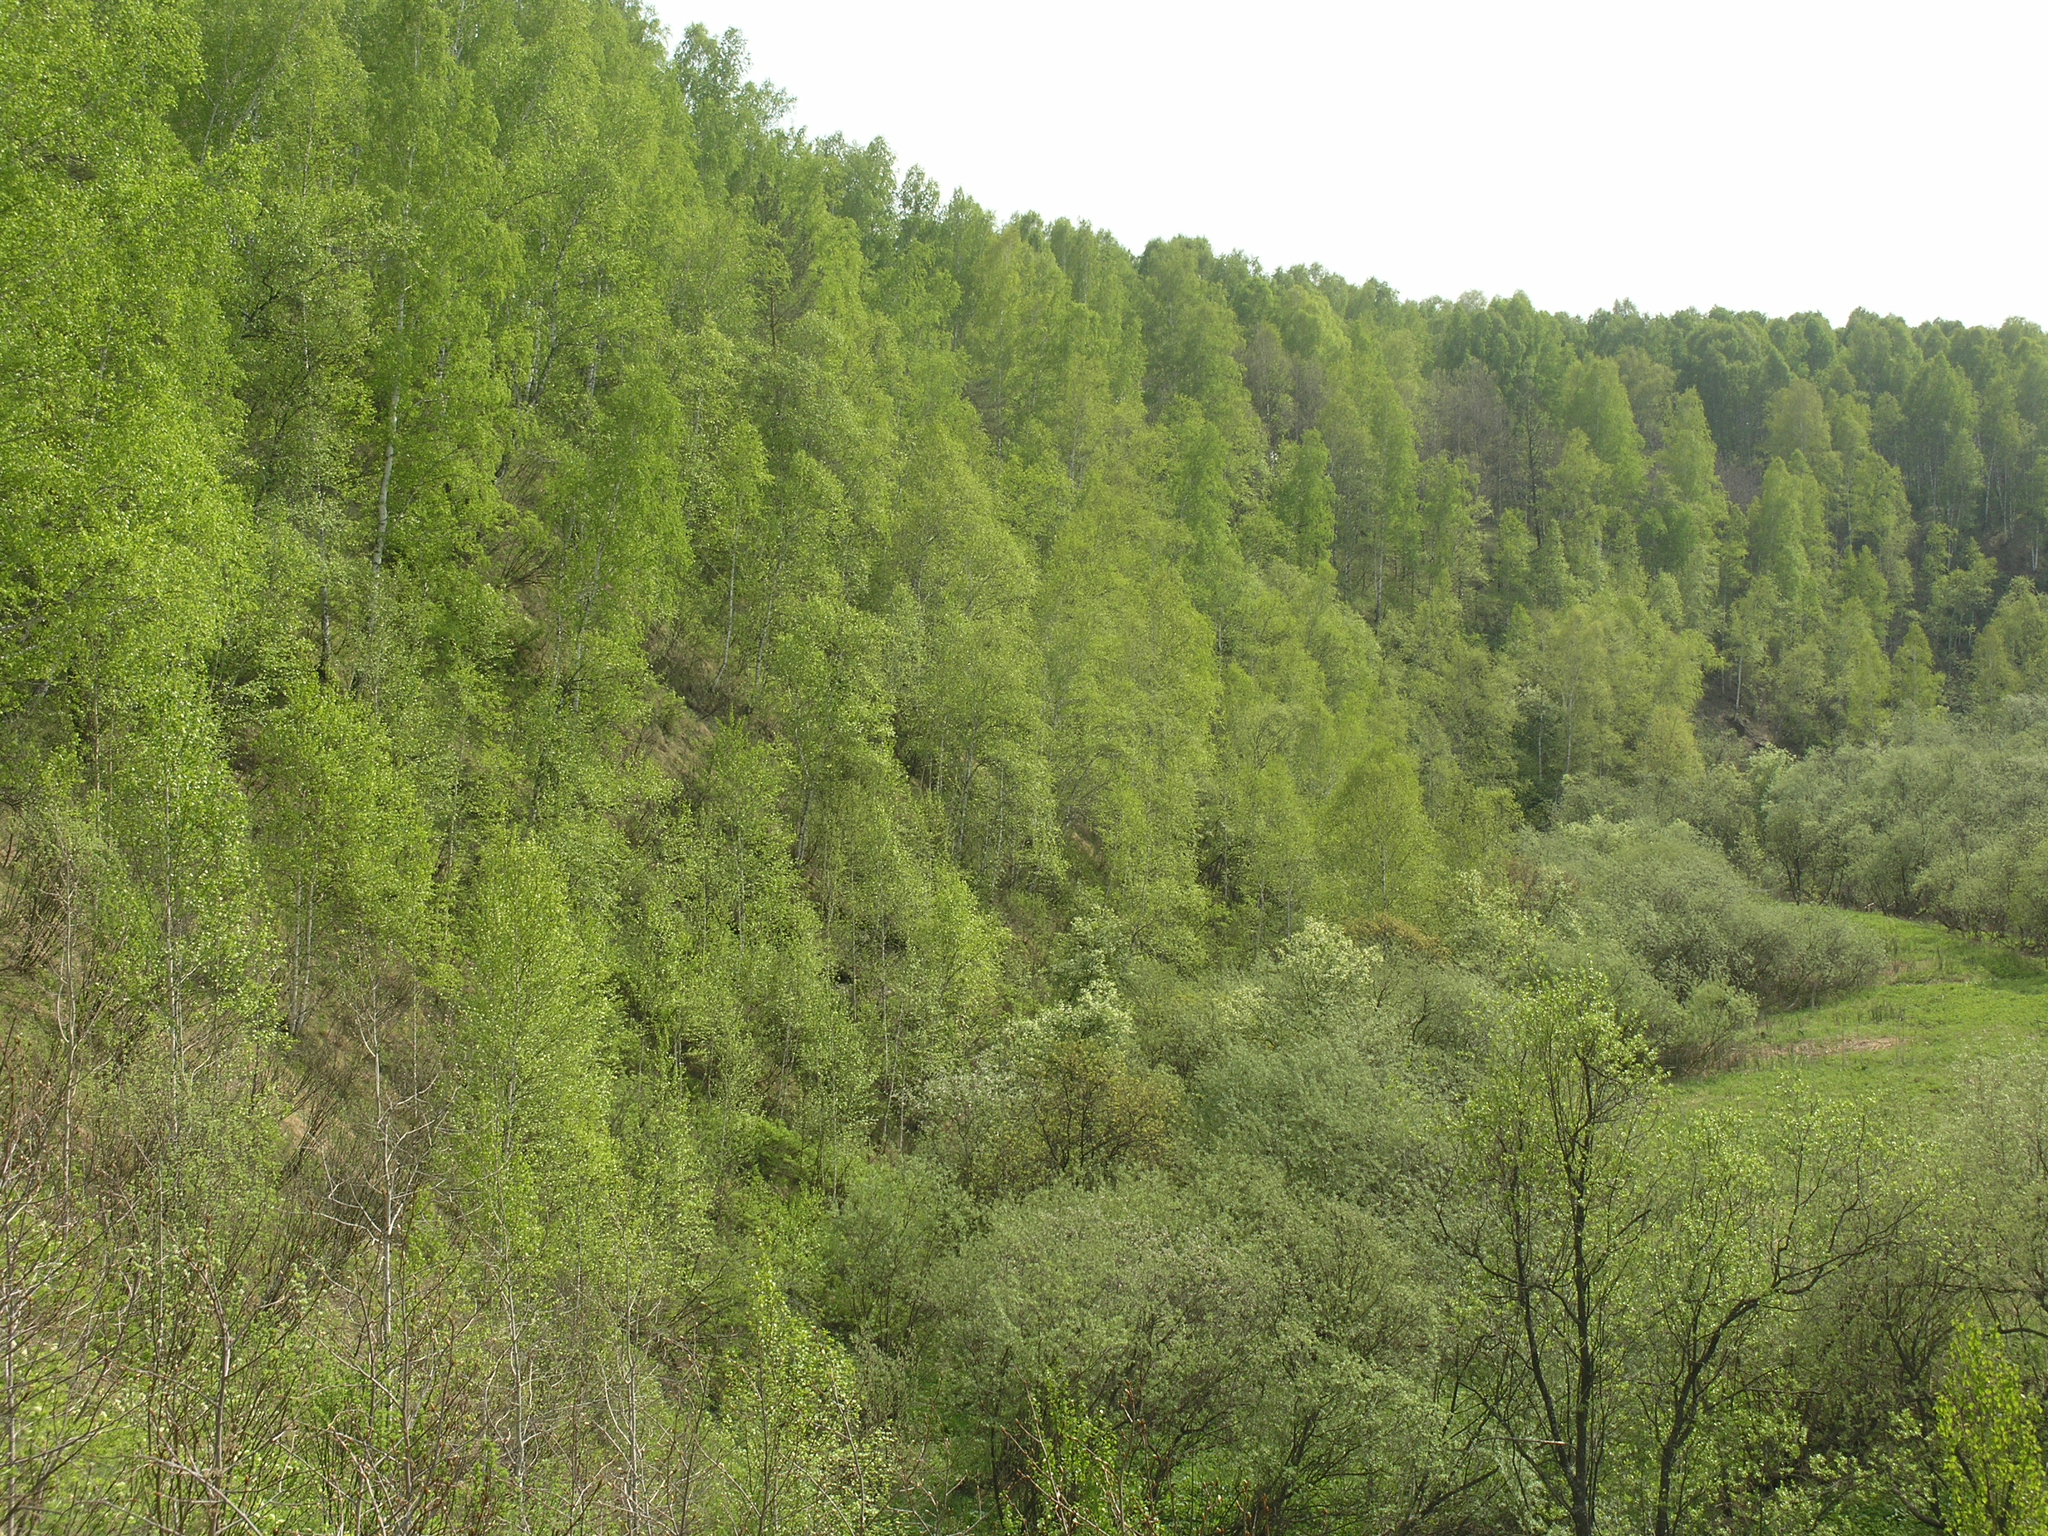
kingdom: Plantae
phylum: Tracheophyta
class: Magnoliopsida
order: Fagales
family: Betulaceae
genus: Betula
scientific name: Betula pendula
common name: Silver birch
